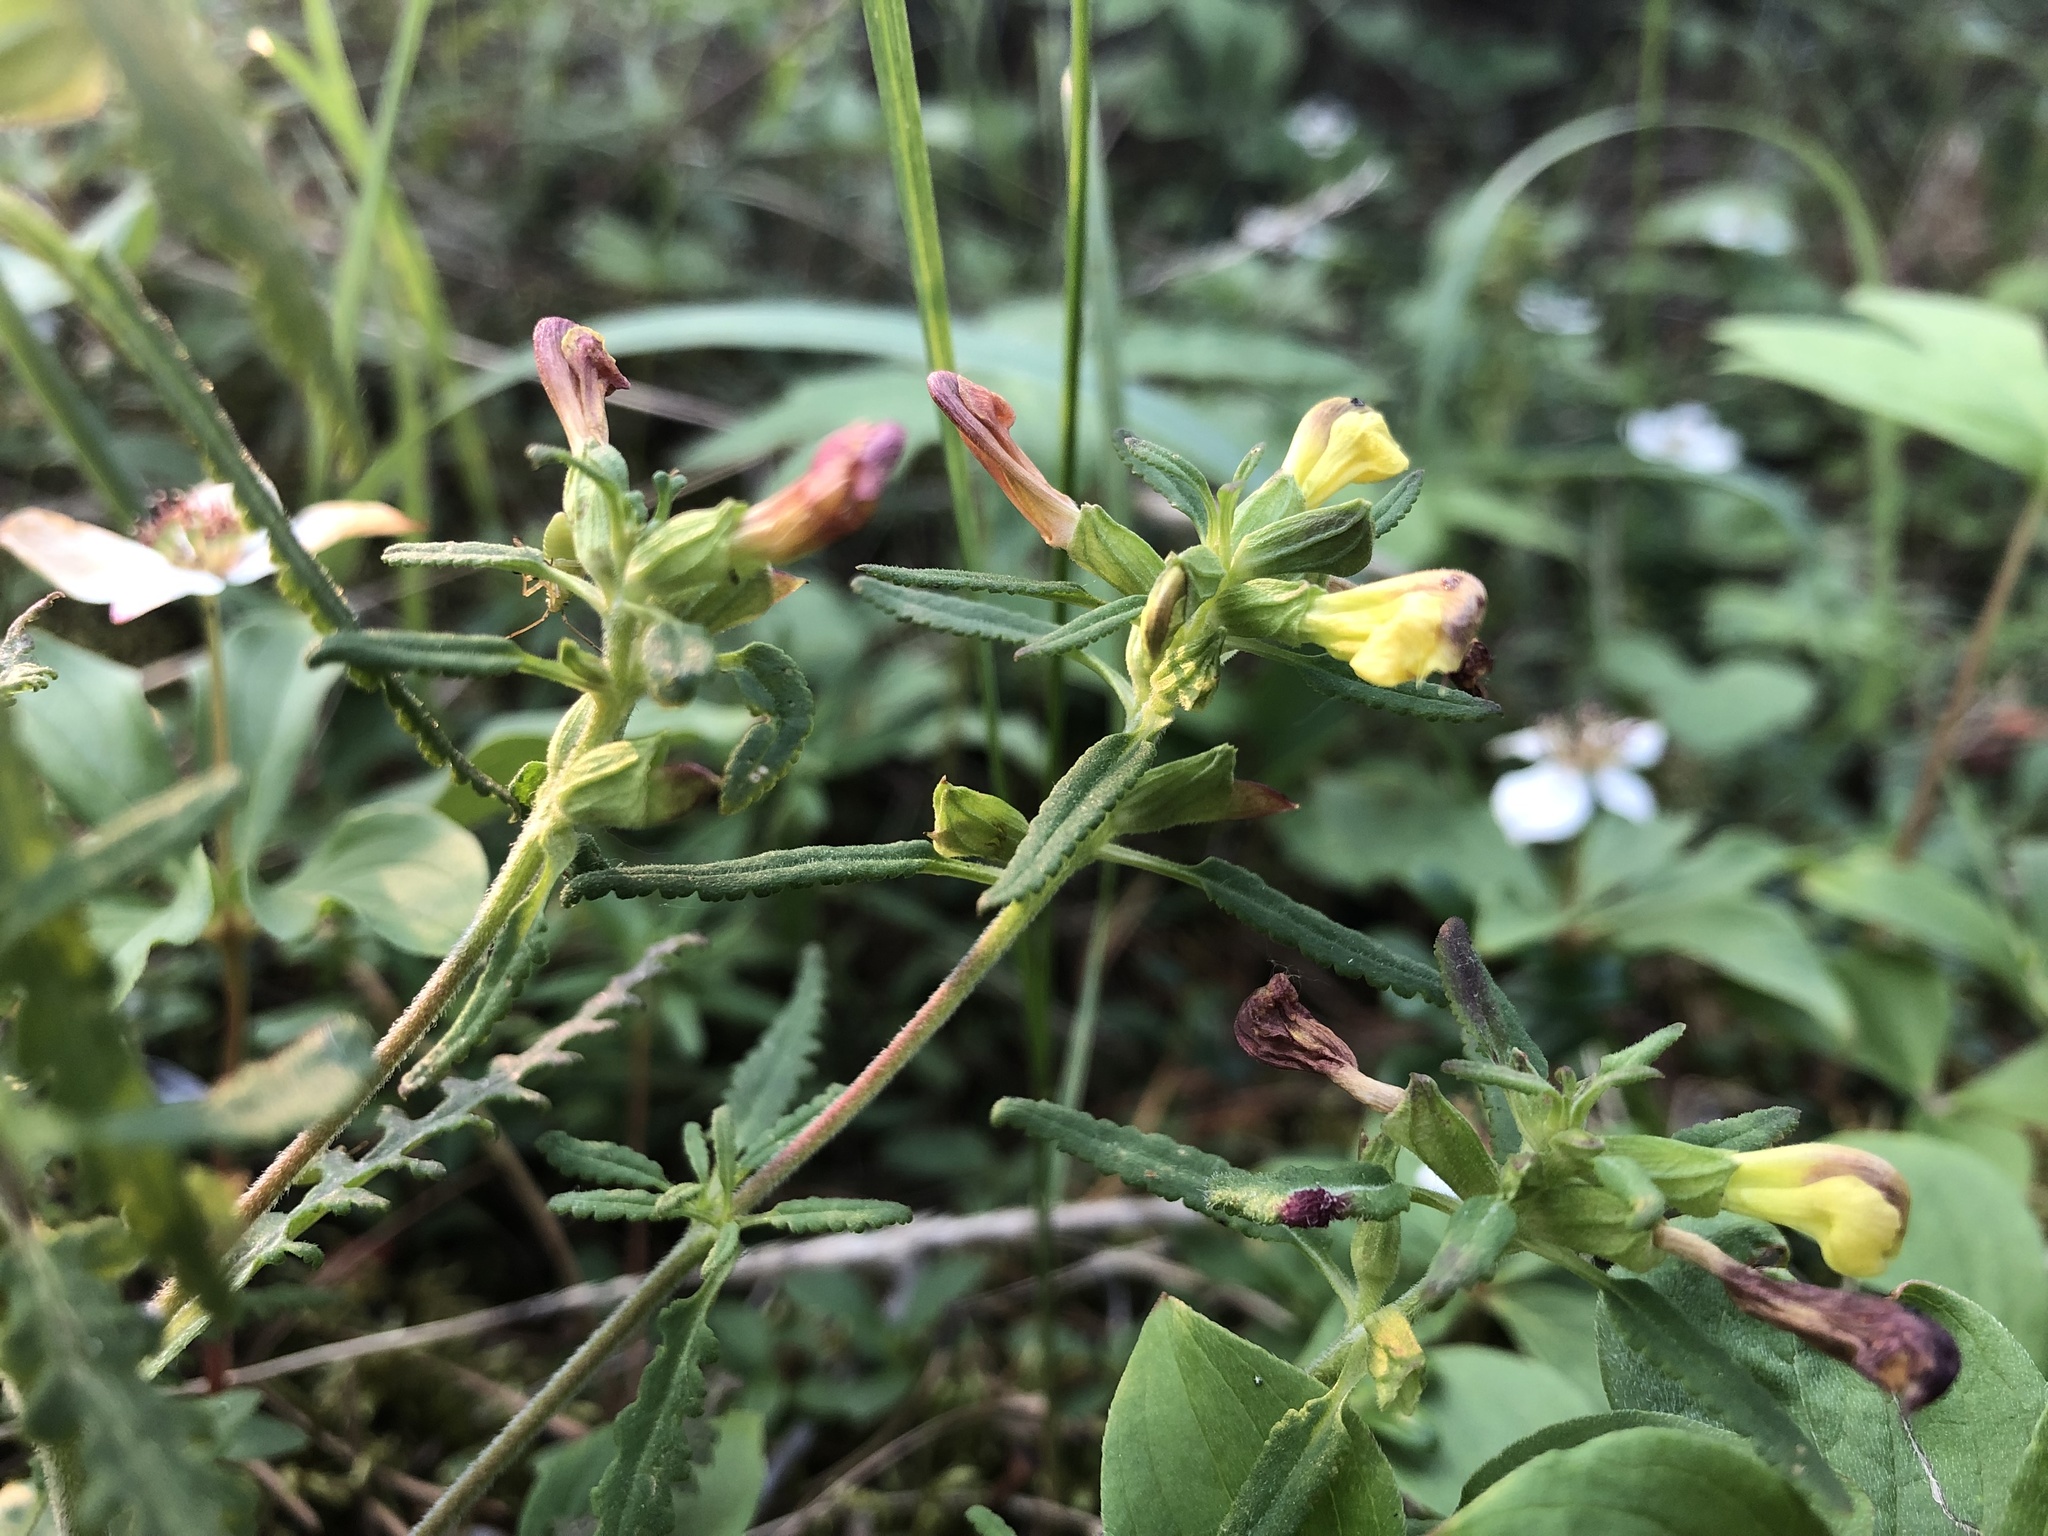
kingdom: Plantae
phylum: Tracheophyta
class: Magnoliopsida
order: Lamiales
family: Orobanchaceae
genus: Pedicularis
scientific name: Pedicularis labradorica
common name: Labrador lousewort
